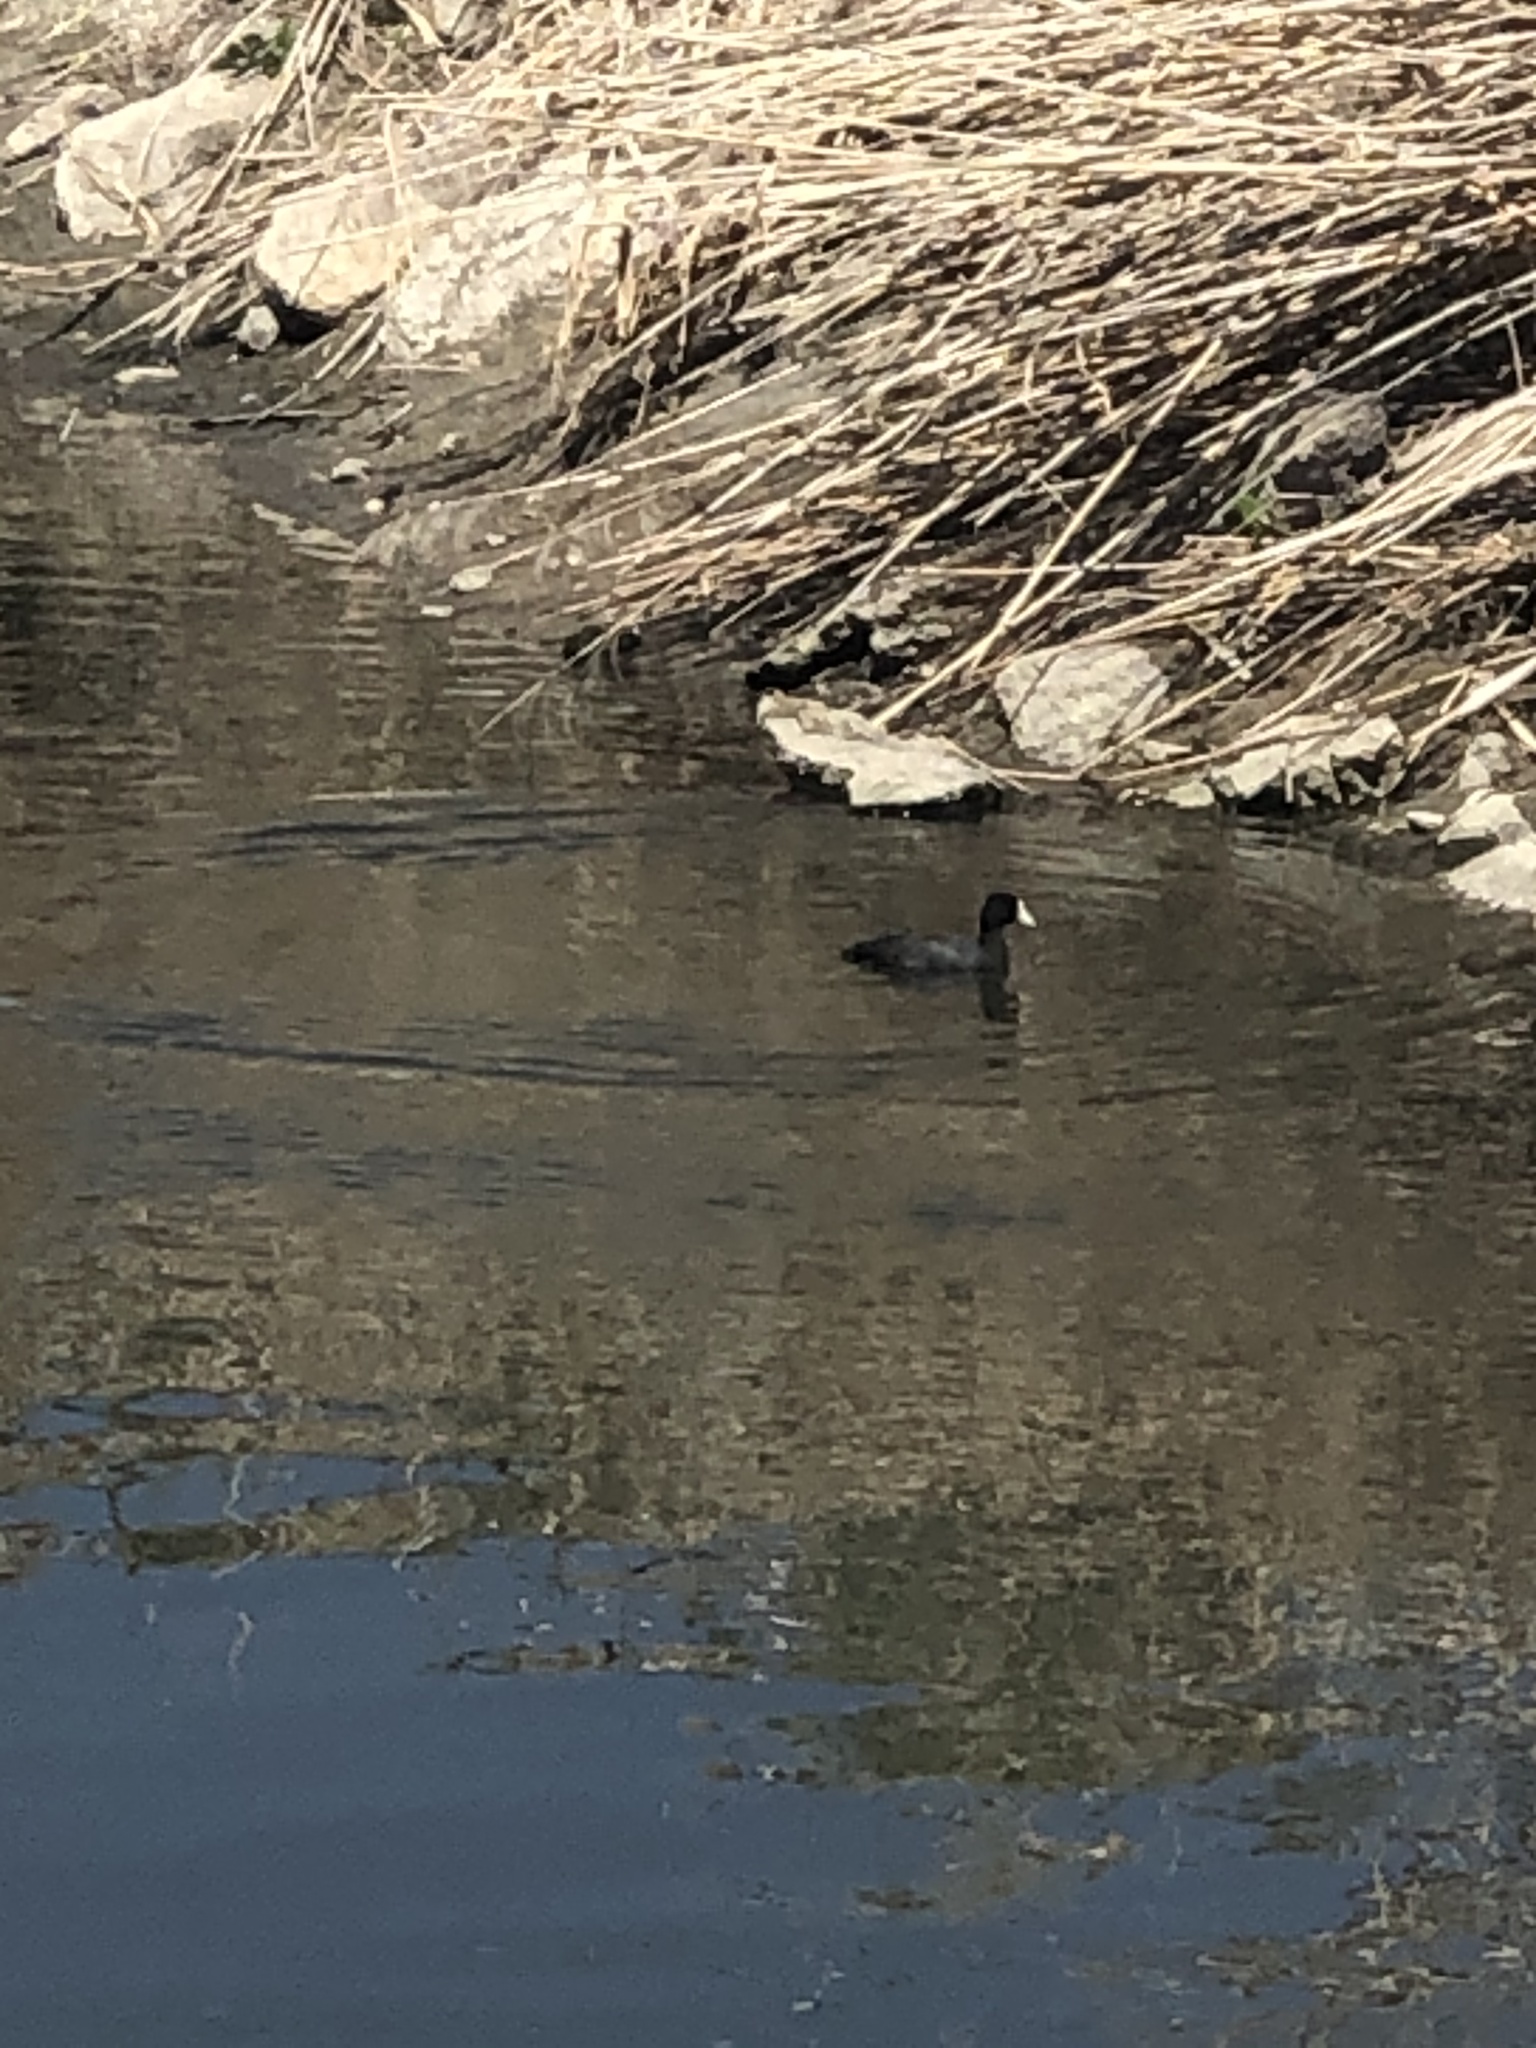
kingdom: Animalia
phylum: Chordata
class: Aves
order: Gruiformes
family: Rallidae
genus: Fulica
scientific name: Fulica americana
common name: American coot
